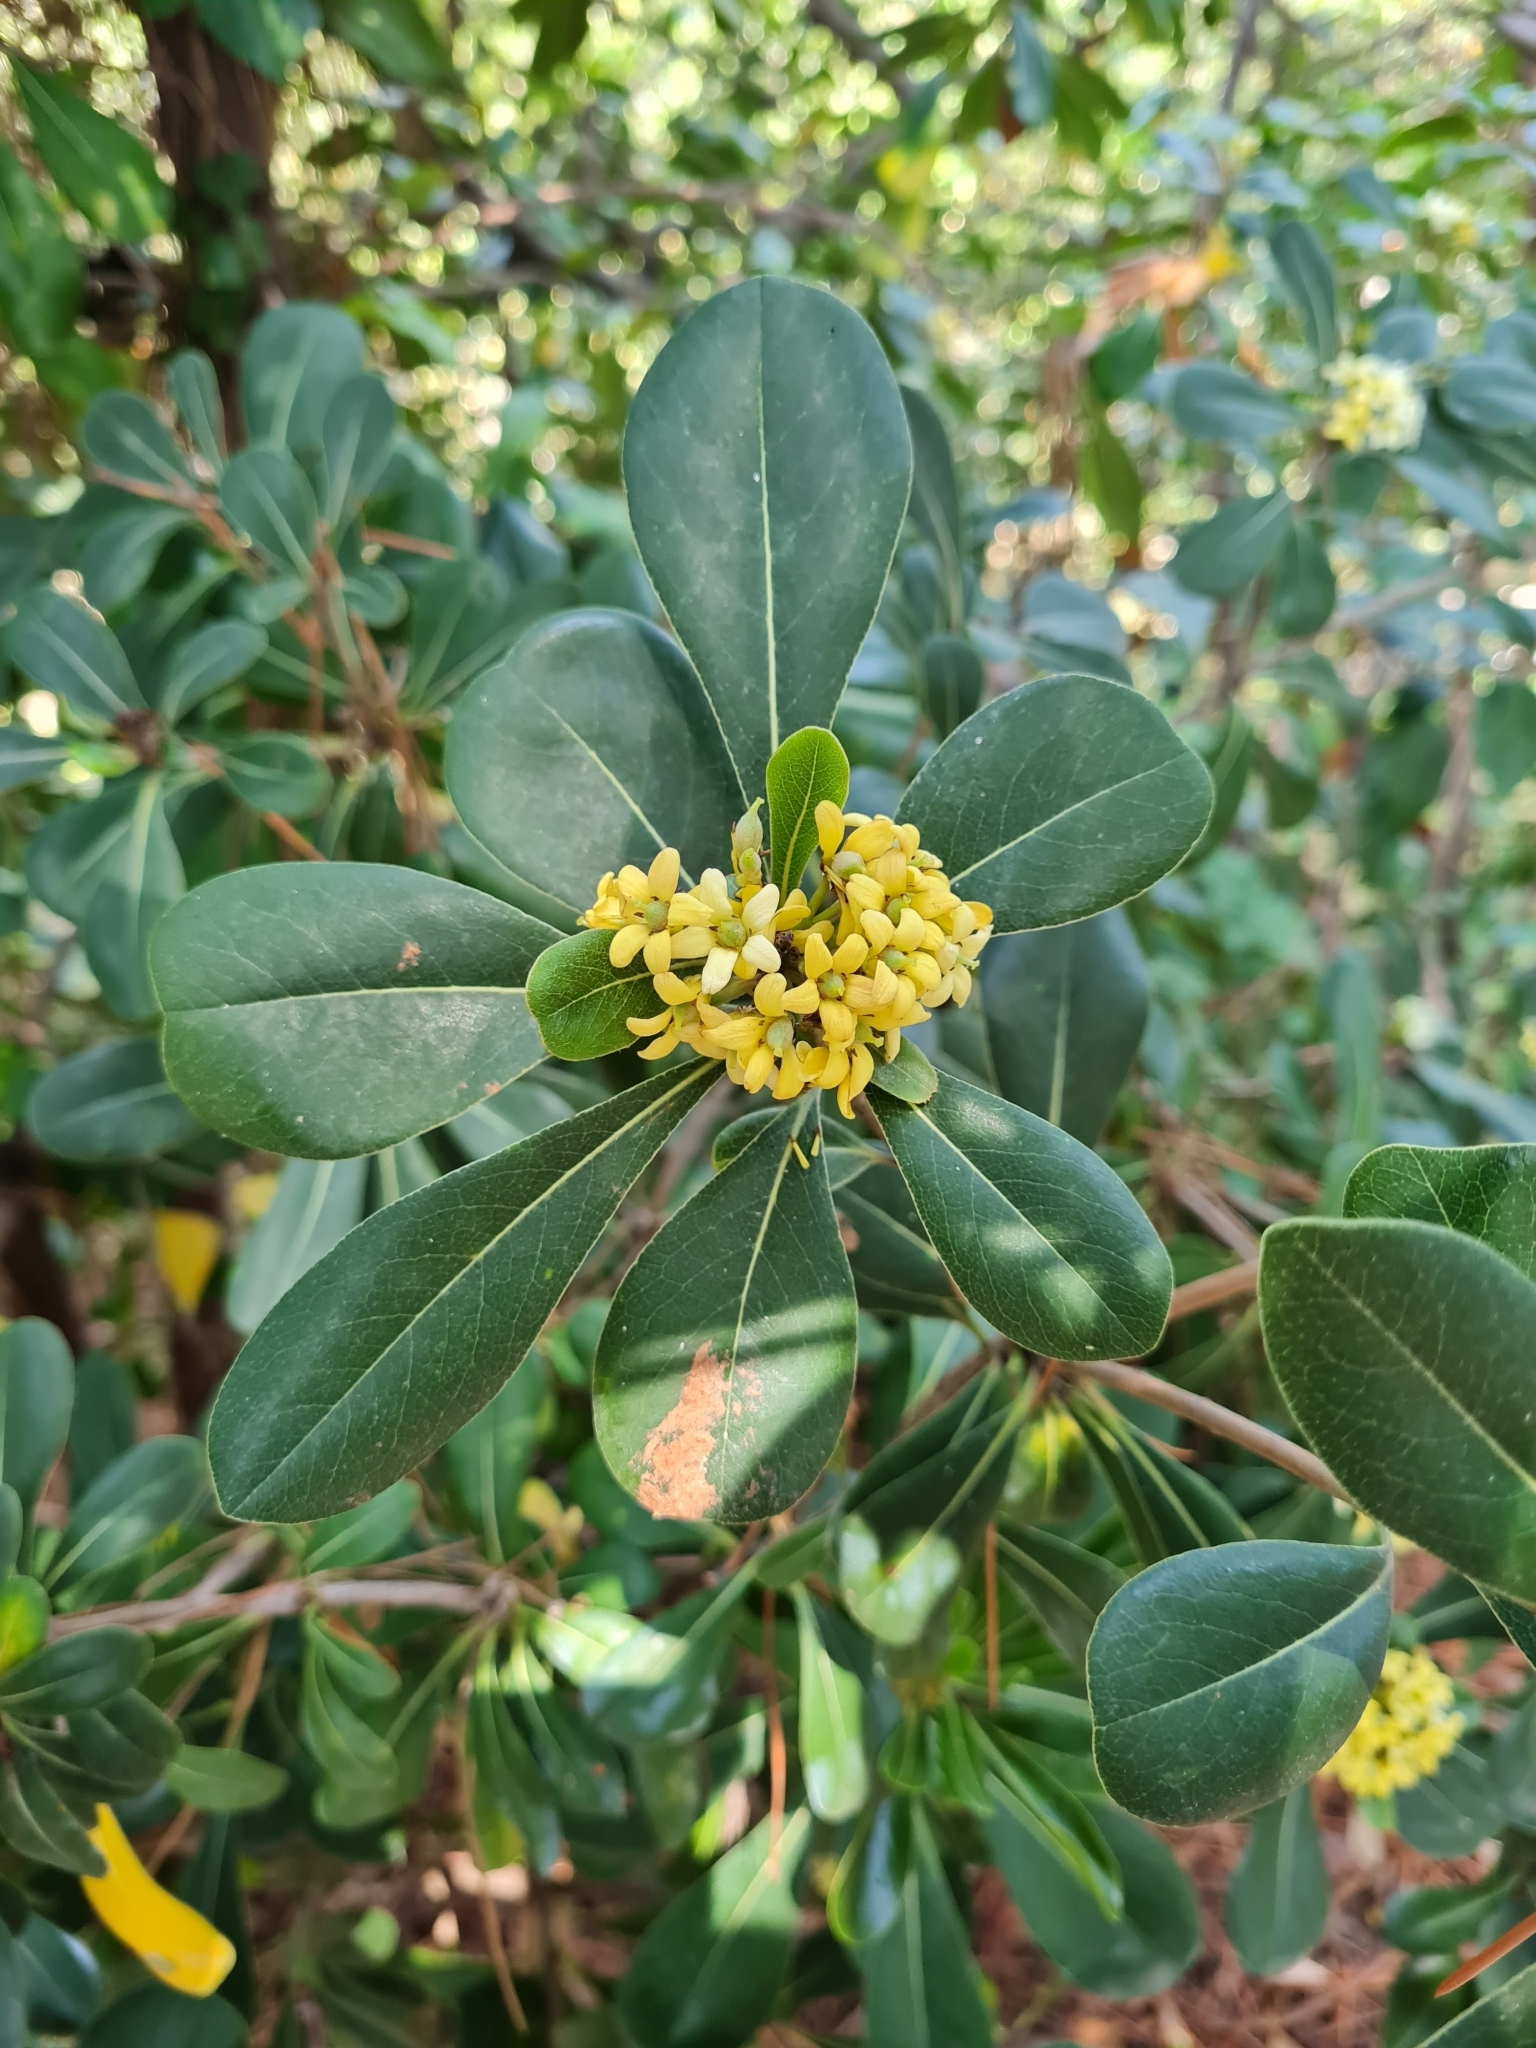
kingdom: Plantae
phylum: Tracheophyta
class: Magnoliopsida
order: Apiales
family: Pittosporaceae
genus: Pittosporum
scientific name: Pittosporum tobira
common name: Japanese cheesewood
